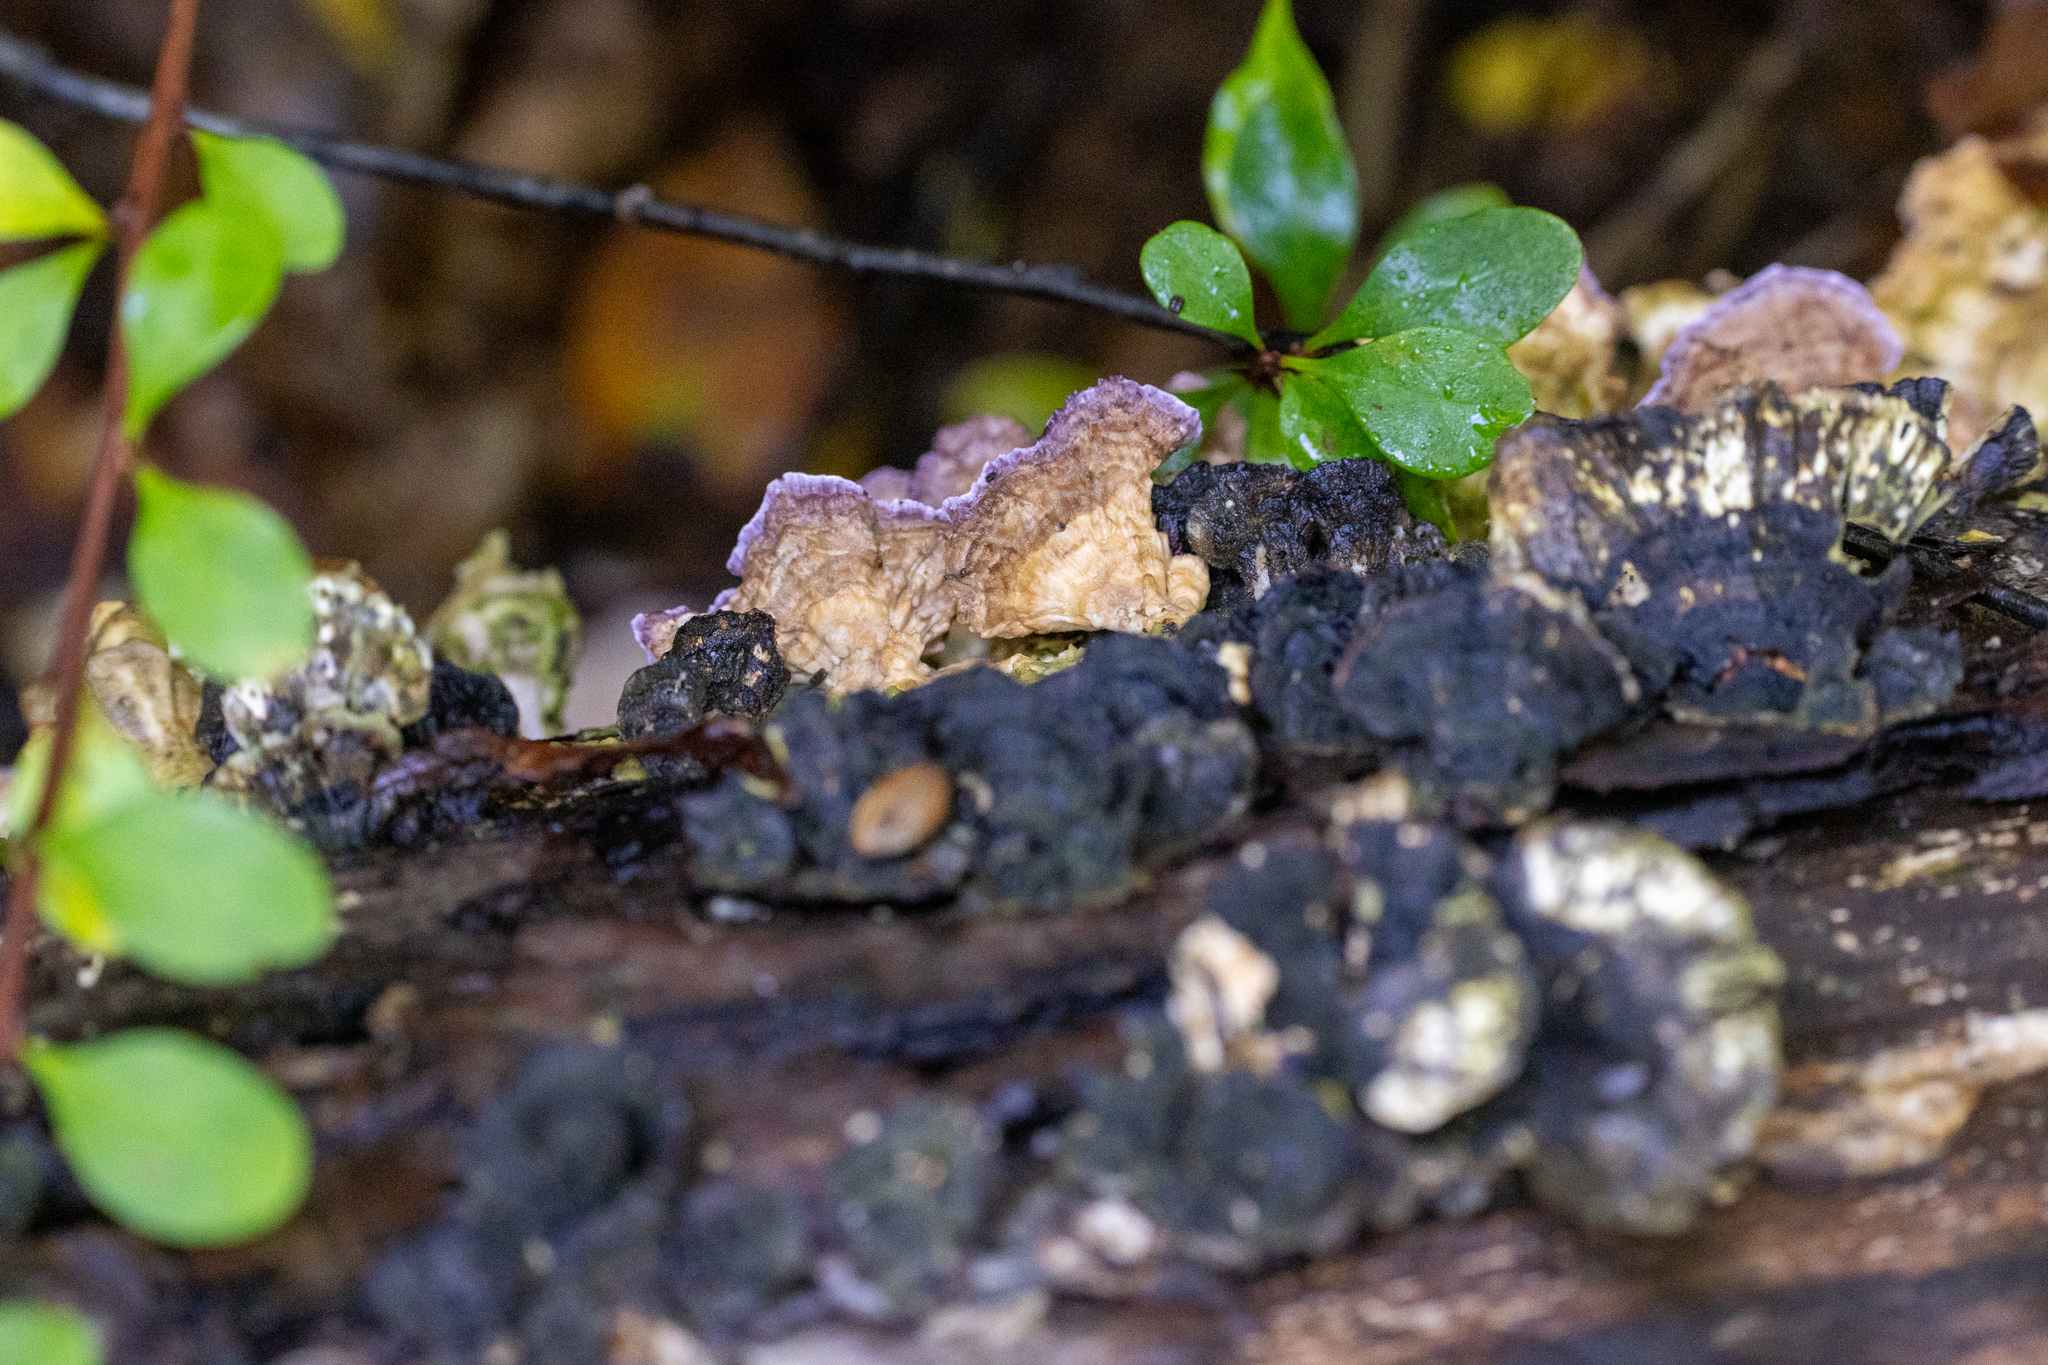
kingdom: Fungi
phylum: Basidiomycota
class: Agaricomycetes
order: Hymenochaetales
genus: Trichaptum
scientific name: Trichaptum biforme
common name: Violet-toothed polypore
